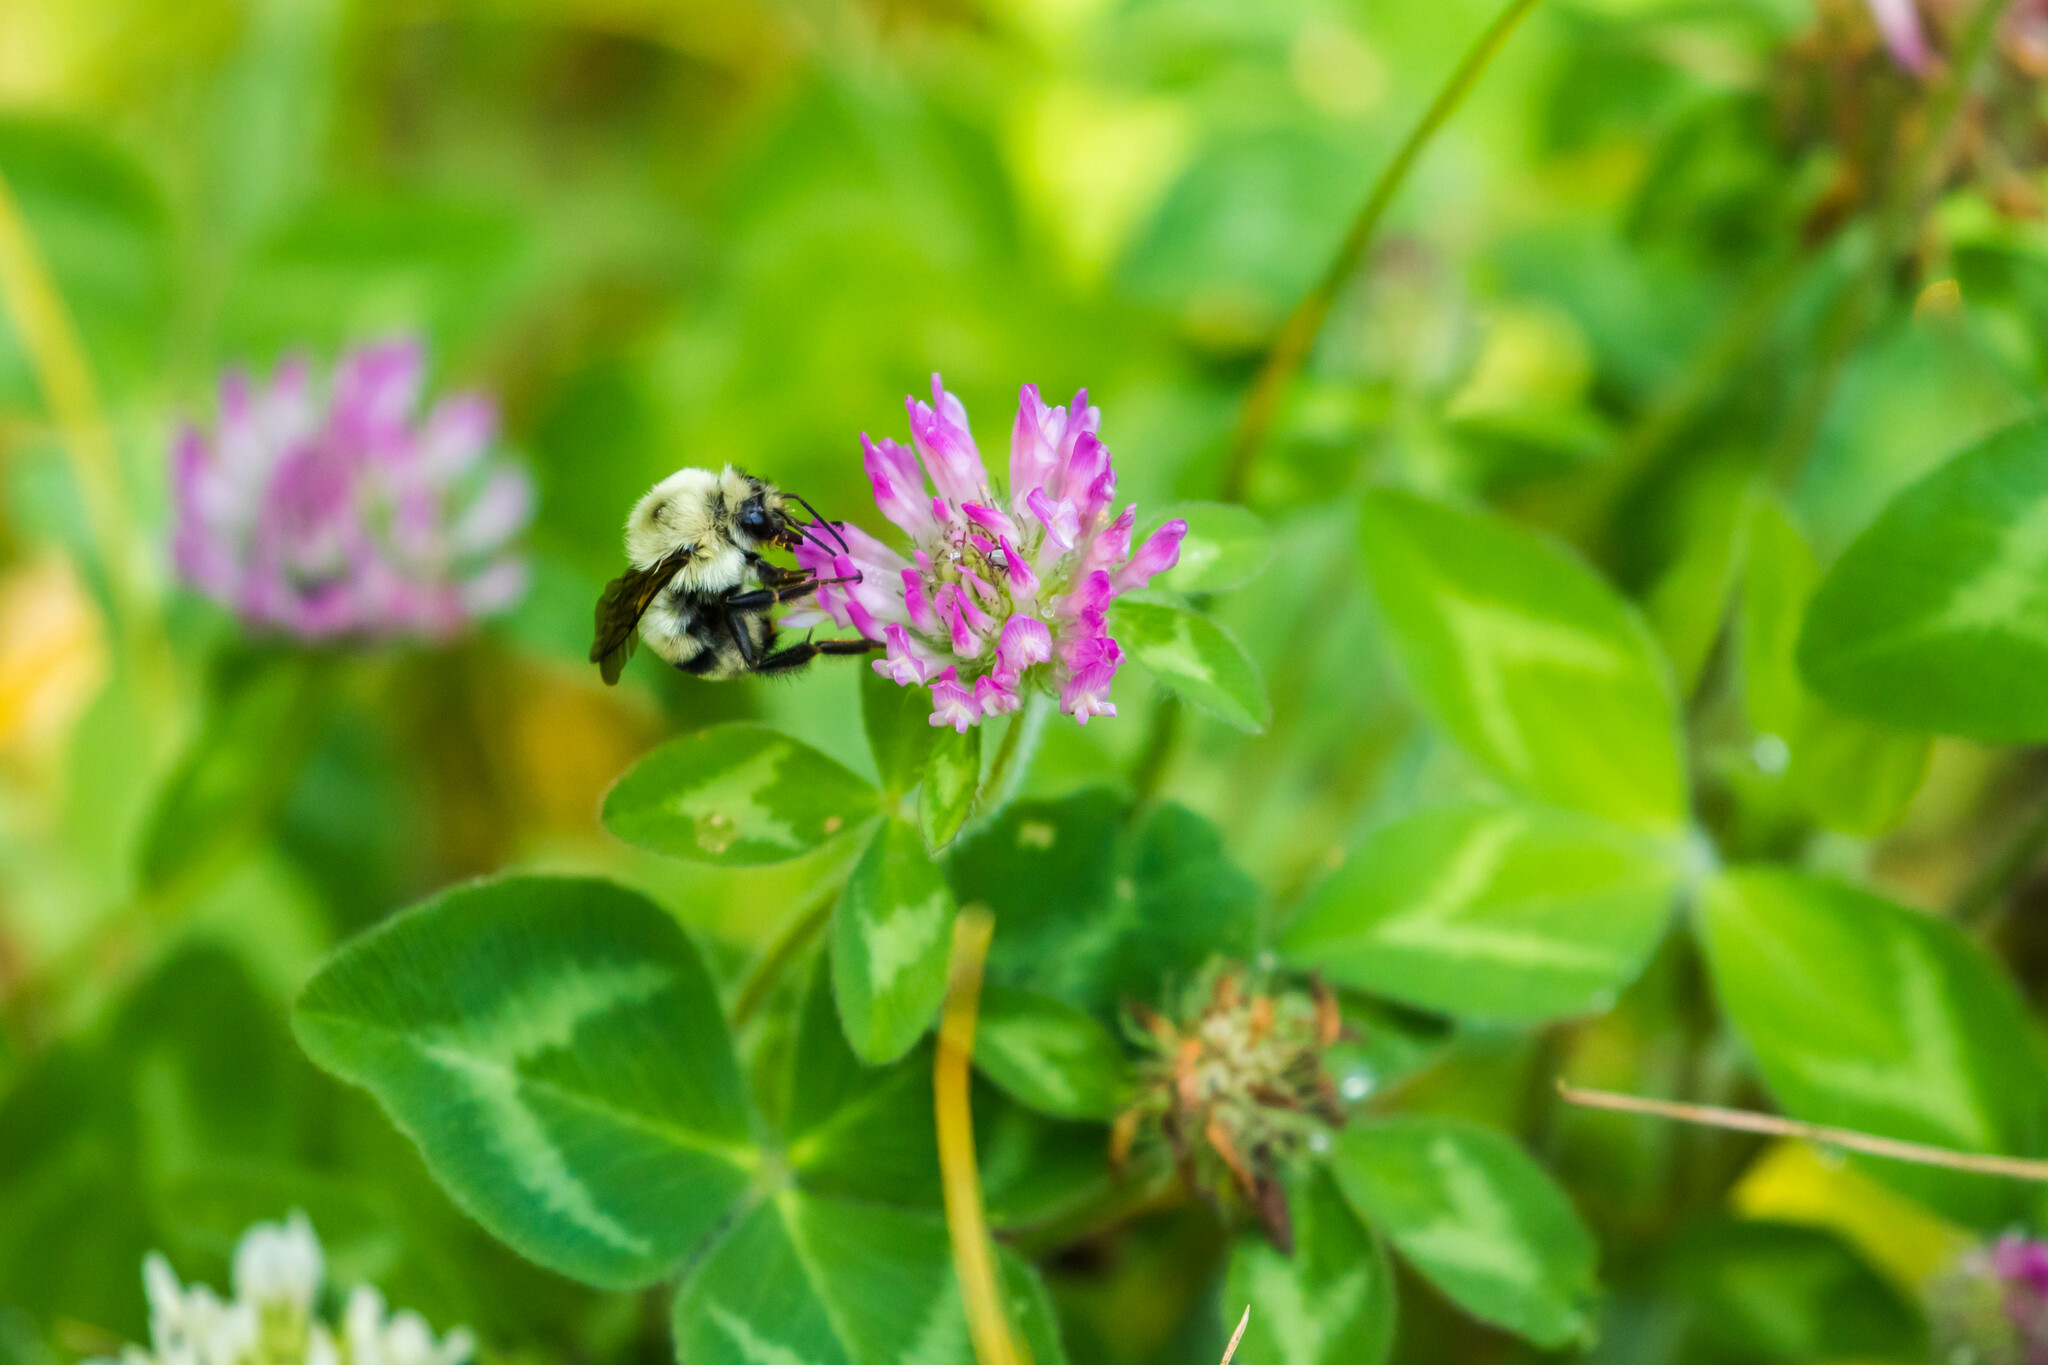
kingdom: Animalia
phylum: Arthropoda
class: Insecta
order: Hymenoptera
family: Apidae
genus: Bombus
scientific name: Bombus bimaculatus
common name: Two-spotted bumble bee
